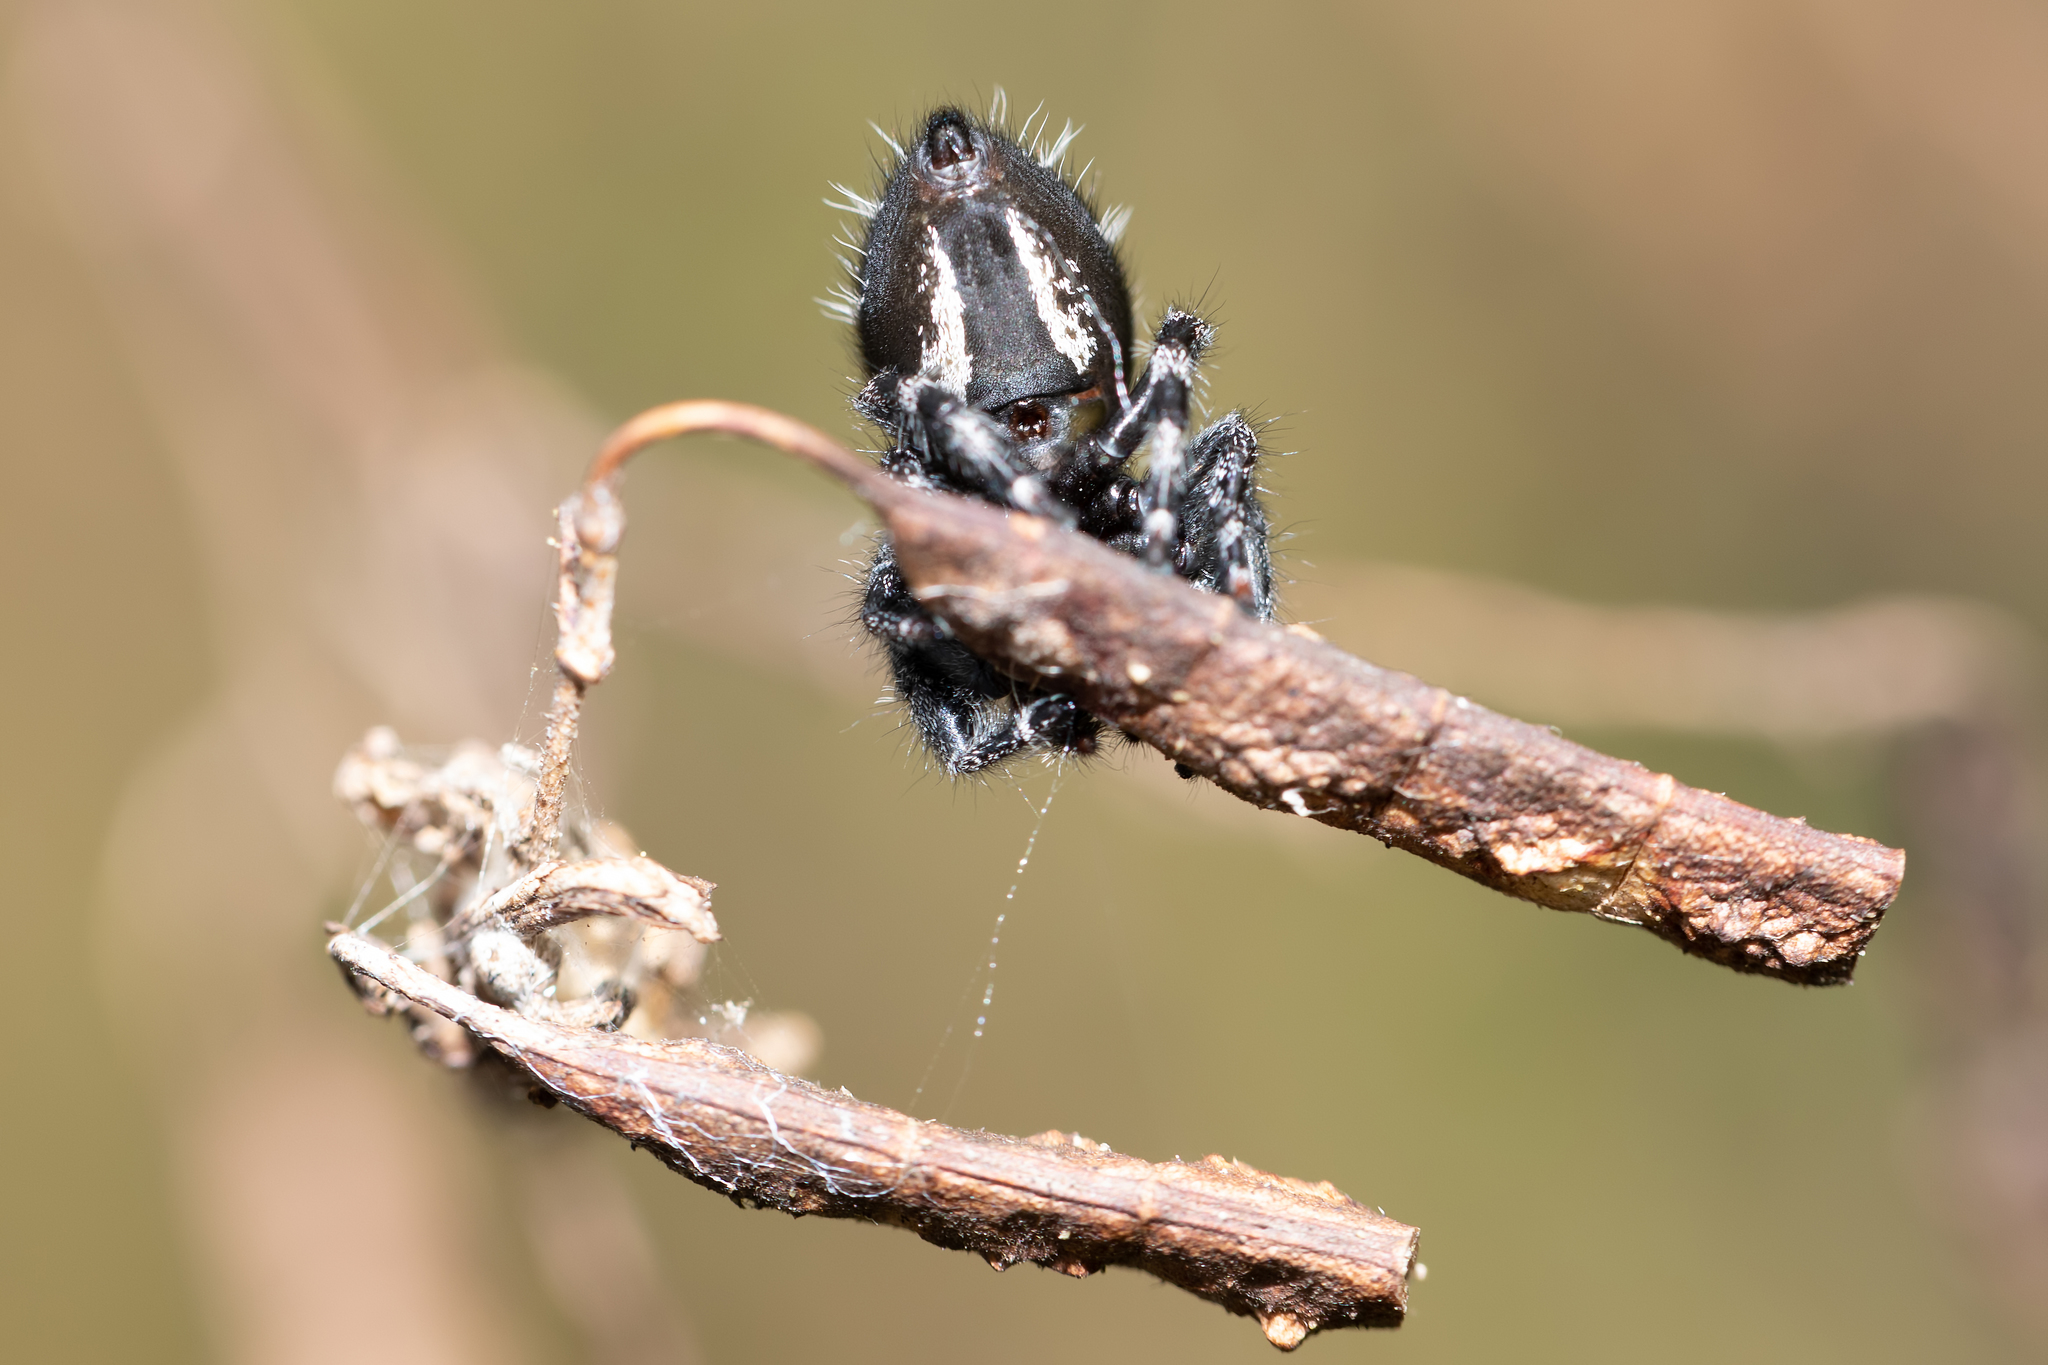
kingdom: Animalia
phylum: Arthropoda
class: Arachnida
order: Araneae
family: Salticidae
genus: Phidippus
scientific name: Phidippus audax
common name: Bold jumper
